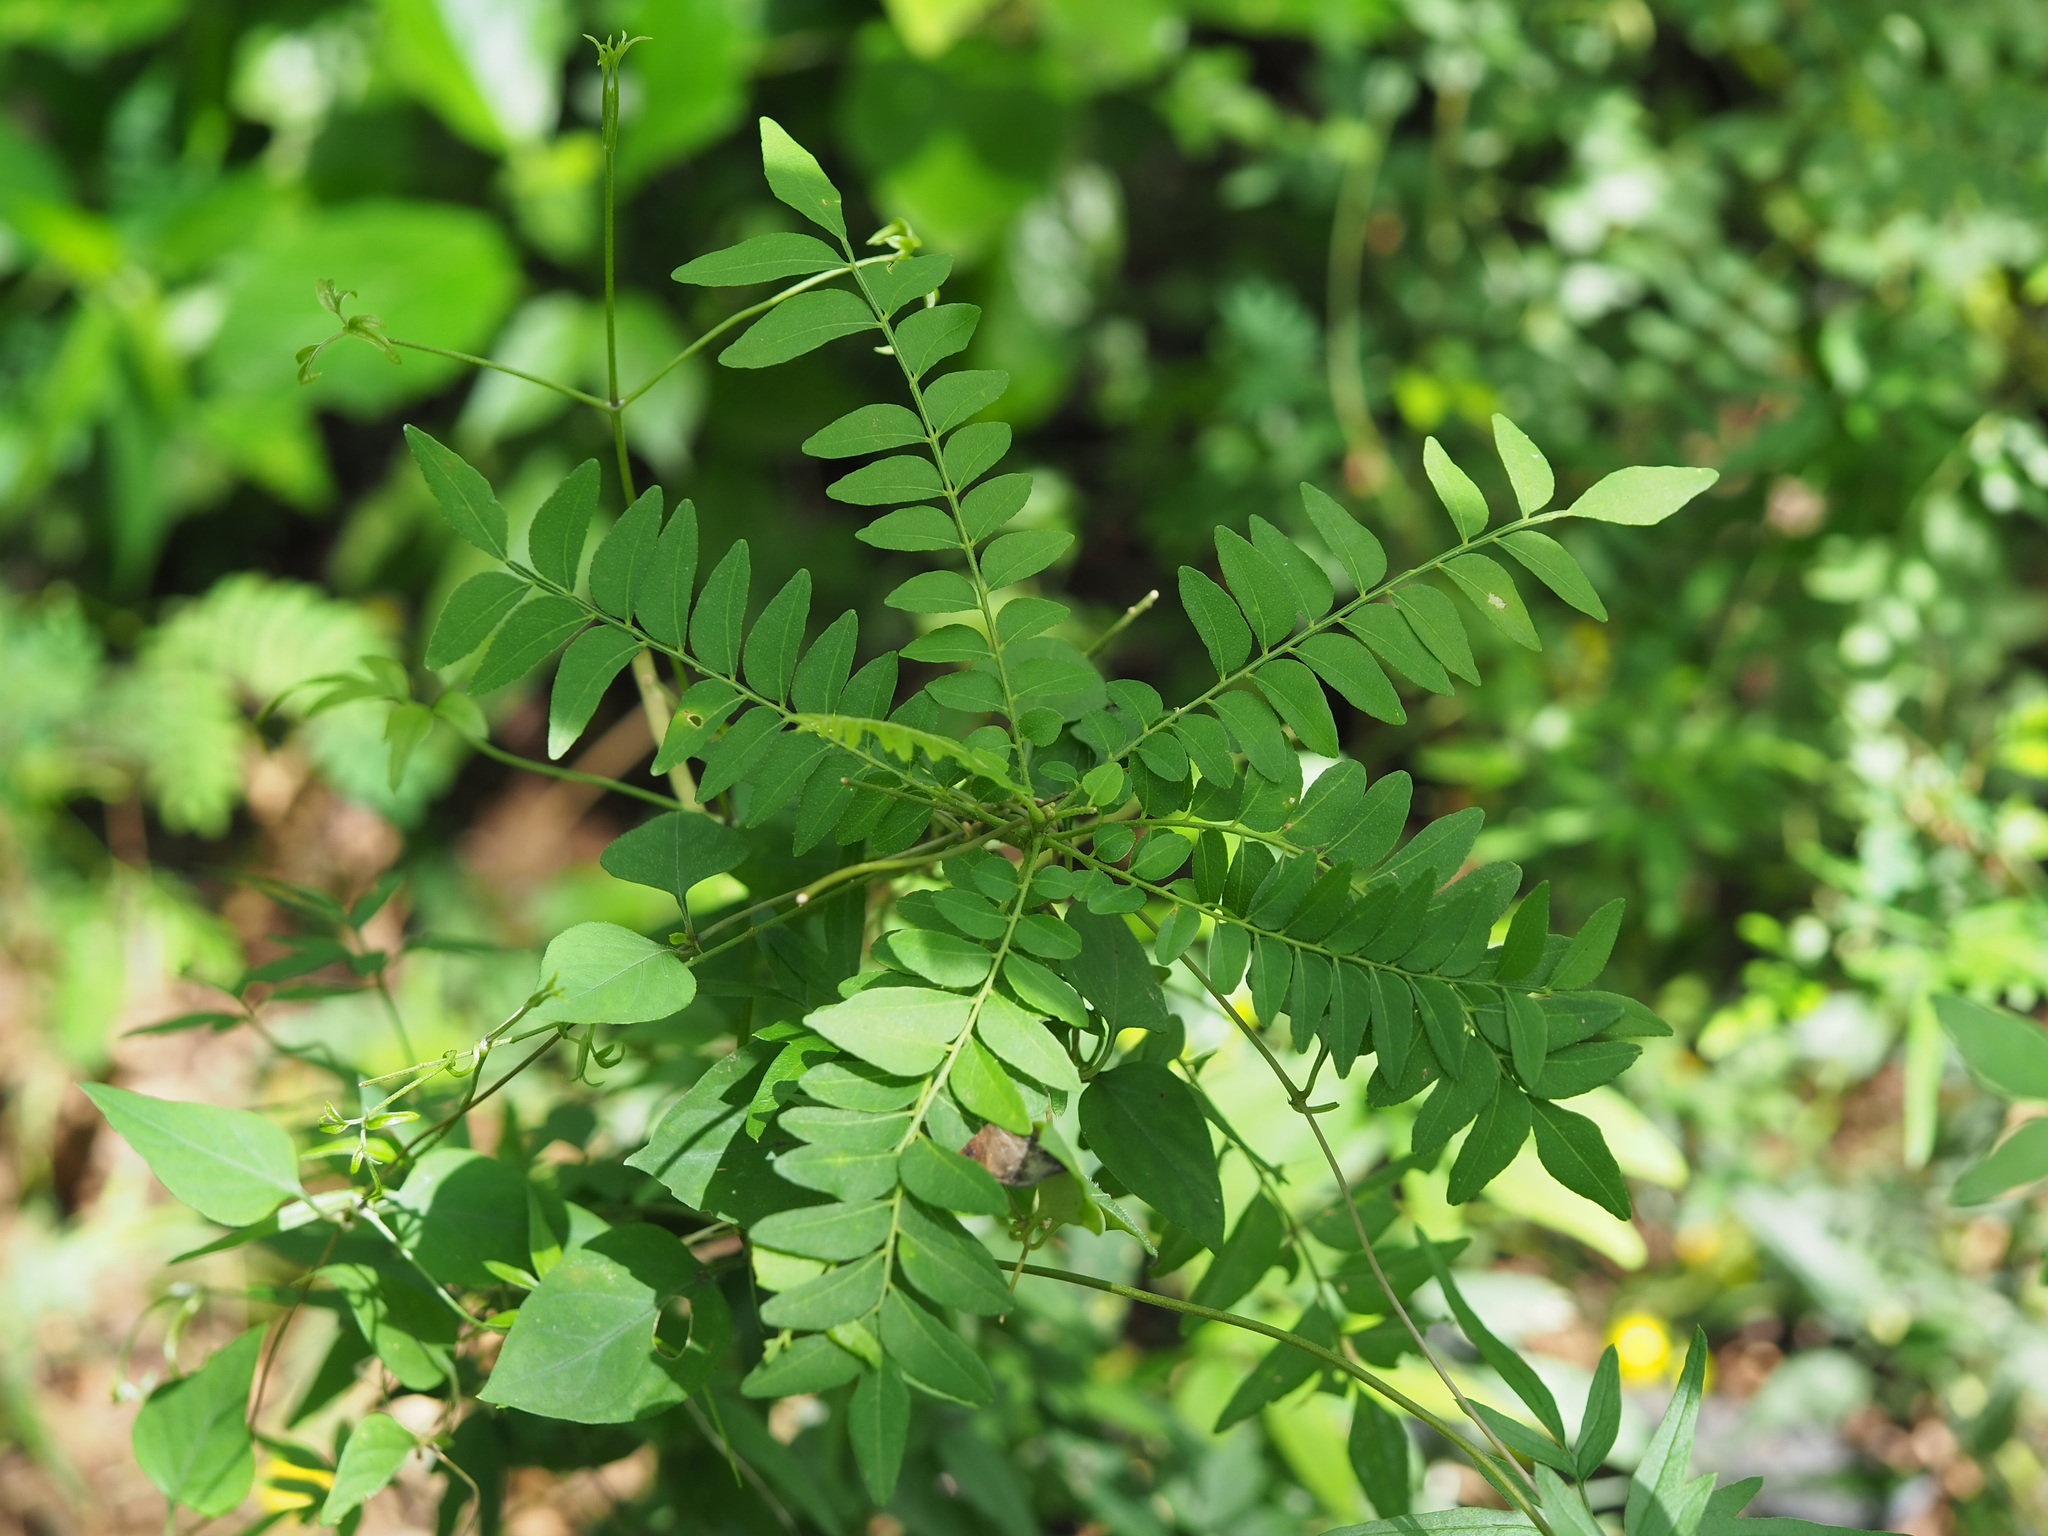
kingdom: Plantae
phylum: Tracheophyta
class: Magnoliopsida
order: Sapindales
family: Rutaceae
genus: Clausena
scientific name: Clausena excavata
